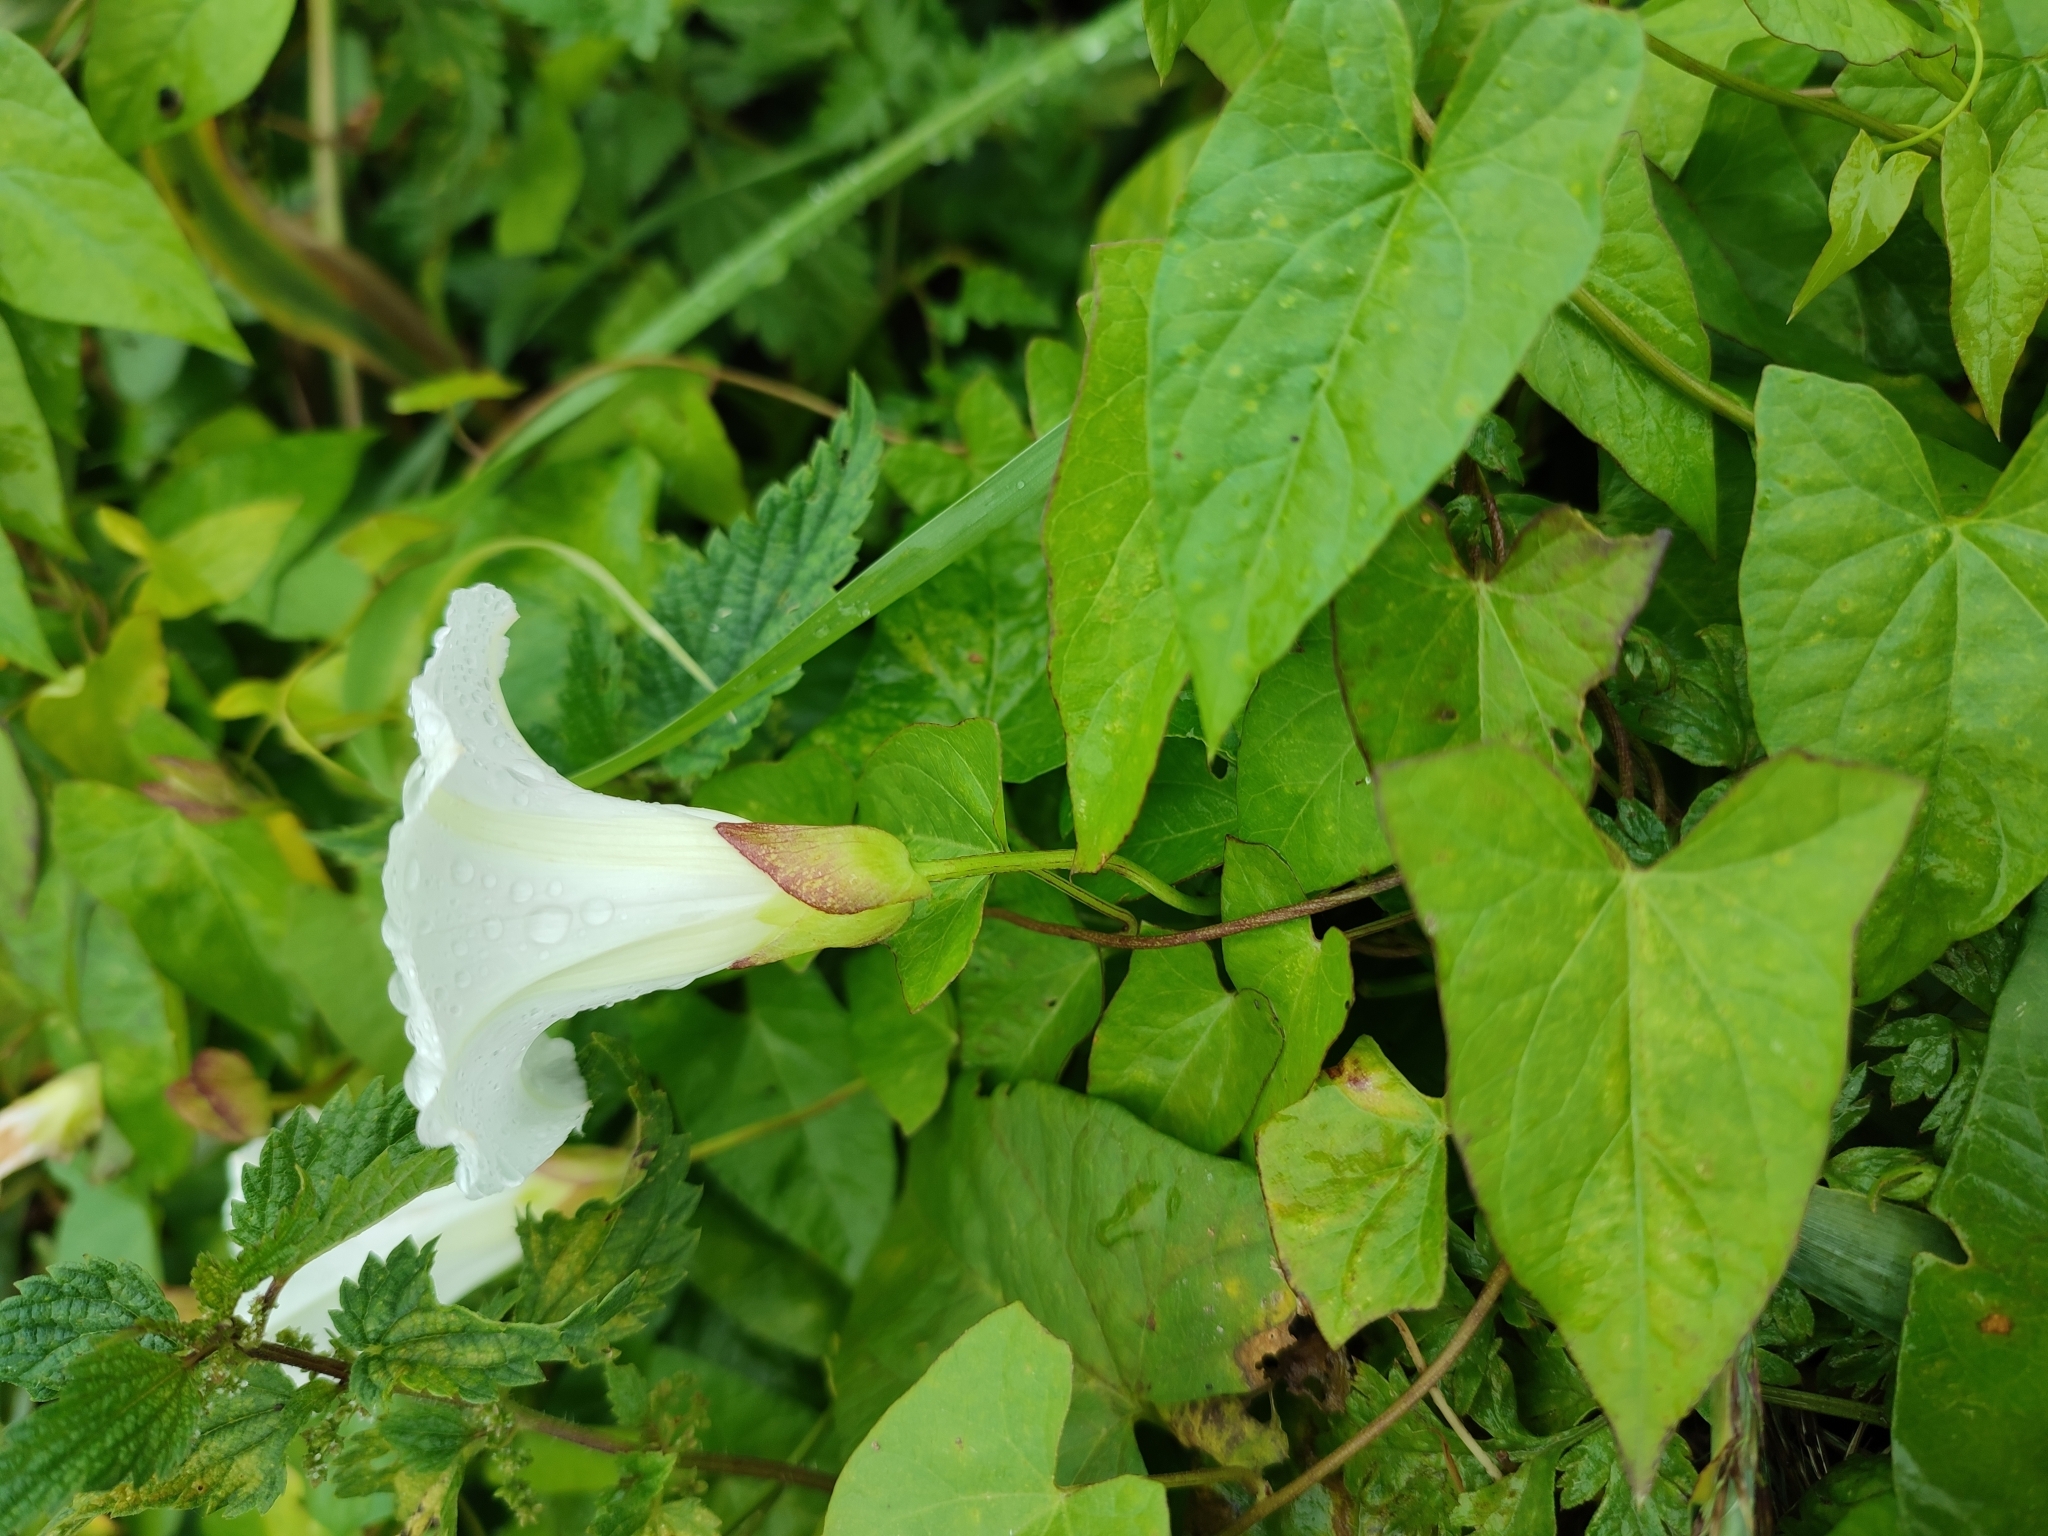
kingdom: Plantae
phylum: Tracheophyta
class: Magnoliopsida
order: Solanales
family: Convolvulaceae
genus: Calystegia
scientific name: Calystegia sepium
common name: Hedge bindweed
